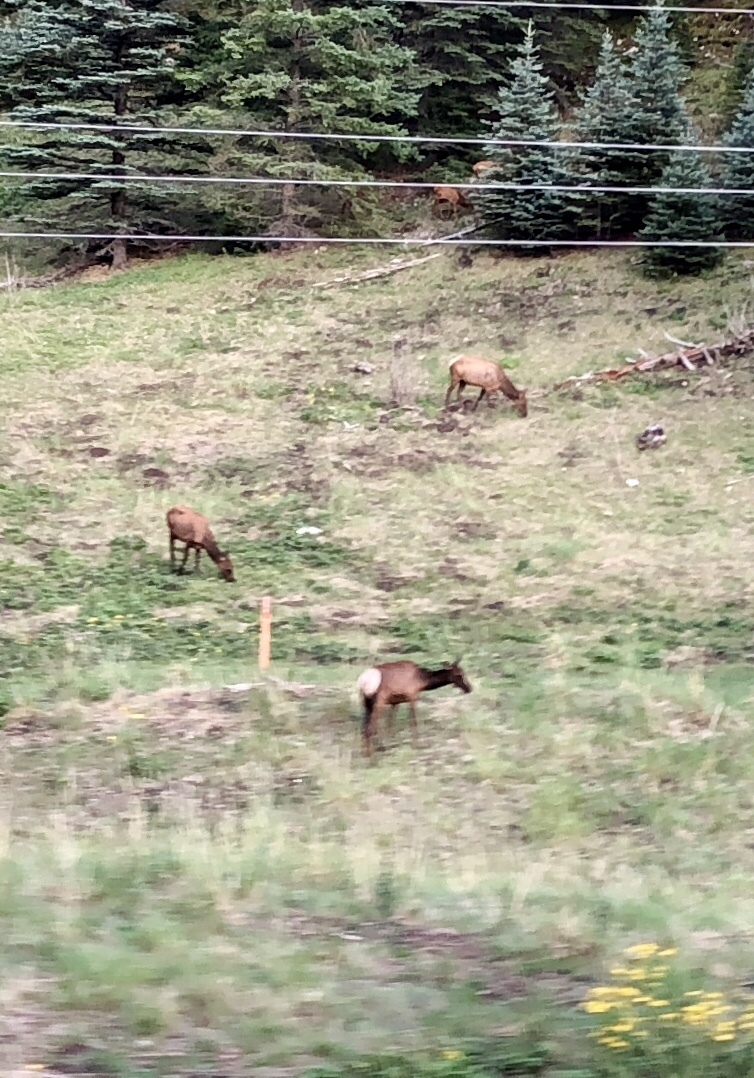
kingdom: Animalia
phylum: Chordata
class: Mammalia
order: Artiodactyla
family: Cervidae
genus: Cervus
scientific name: Cervus elaphus
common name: Red deer
